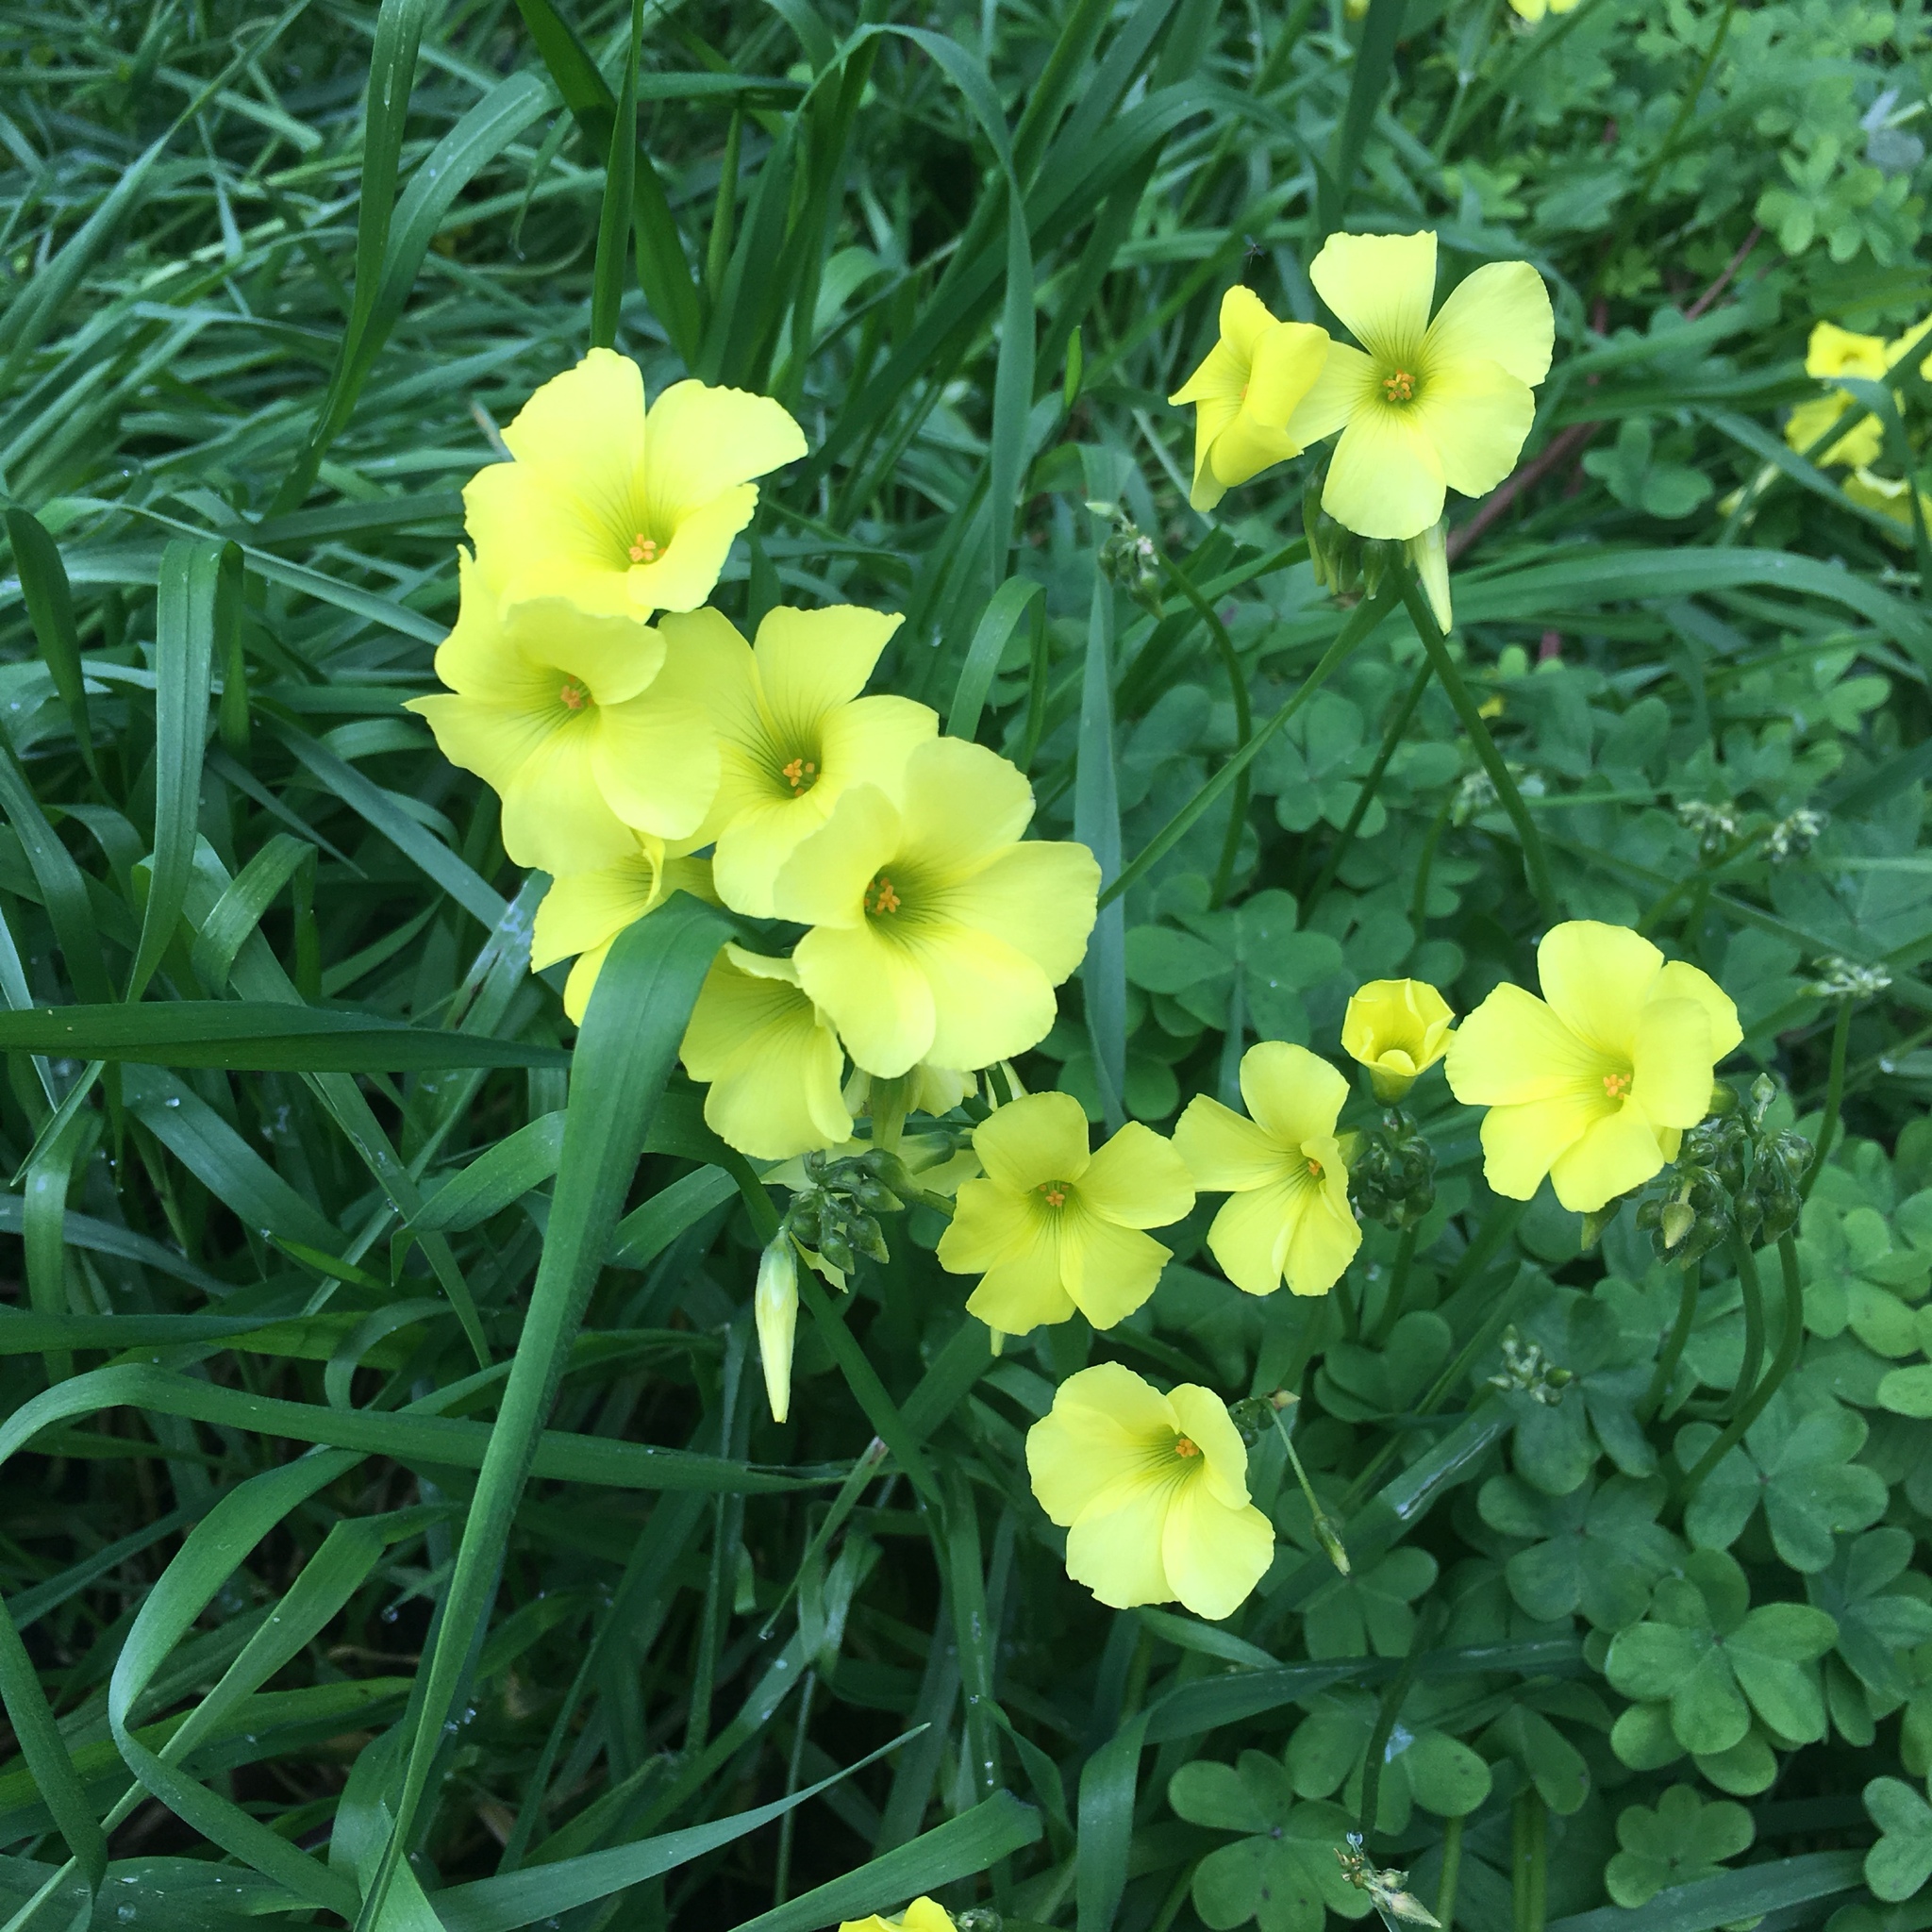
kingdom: Plantae
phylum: Tracheophyta
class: Magnoliopsida
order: Oxalidales
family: Oxalidaceae
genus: Oxalis
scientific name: Oxalis pes-caprae
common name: Bermuda-buttercup
